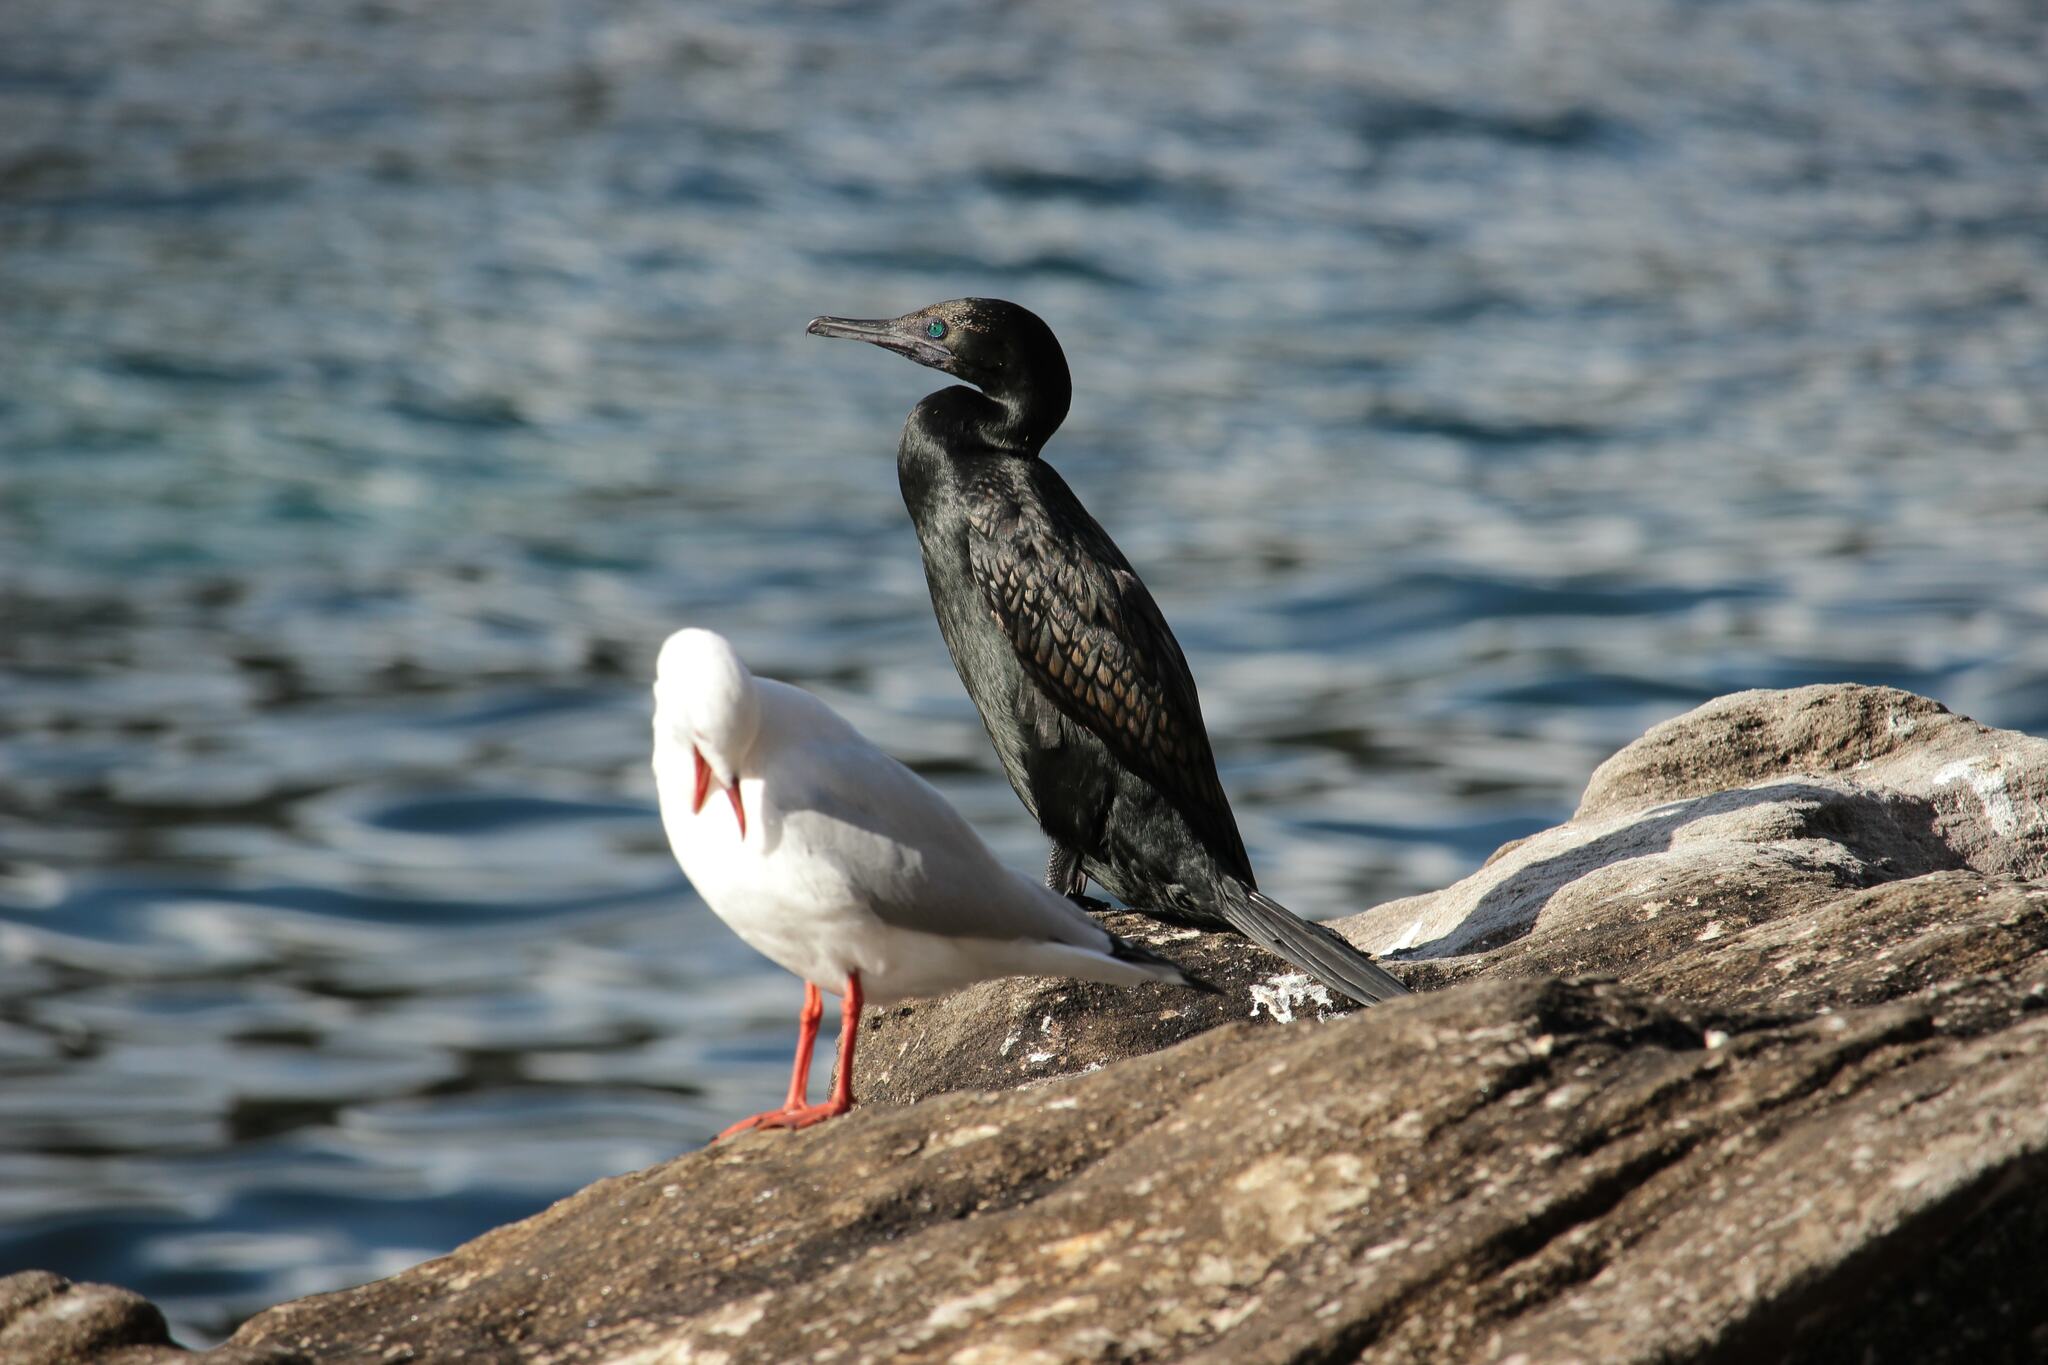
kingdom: Animalia
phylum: Chordata
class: Aves
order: Suliformes
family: Phalacrocoracidae
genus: Phalacrocorax
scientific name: Phalacrocorax sulcirostris
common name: Little black cormorant
